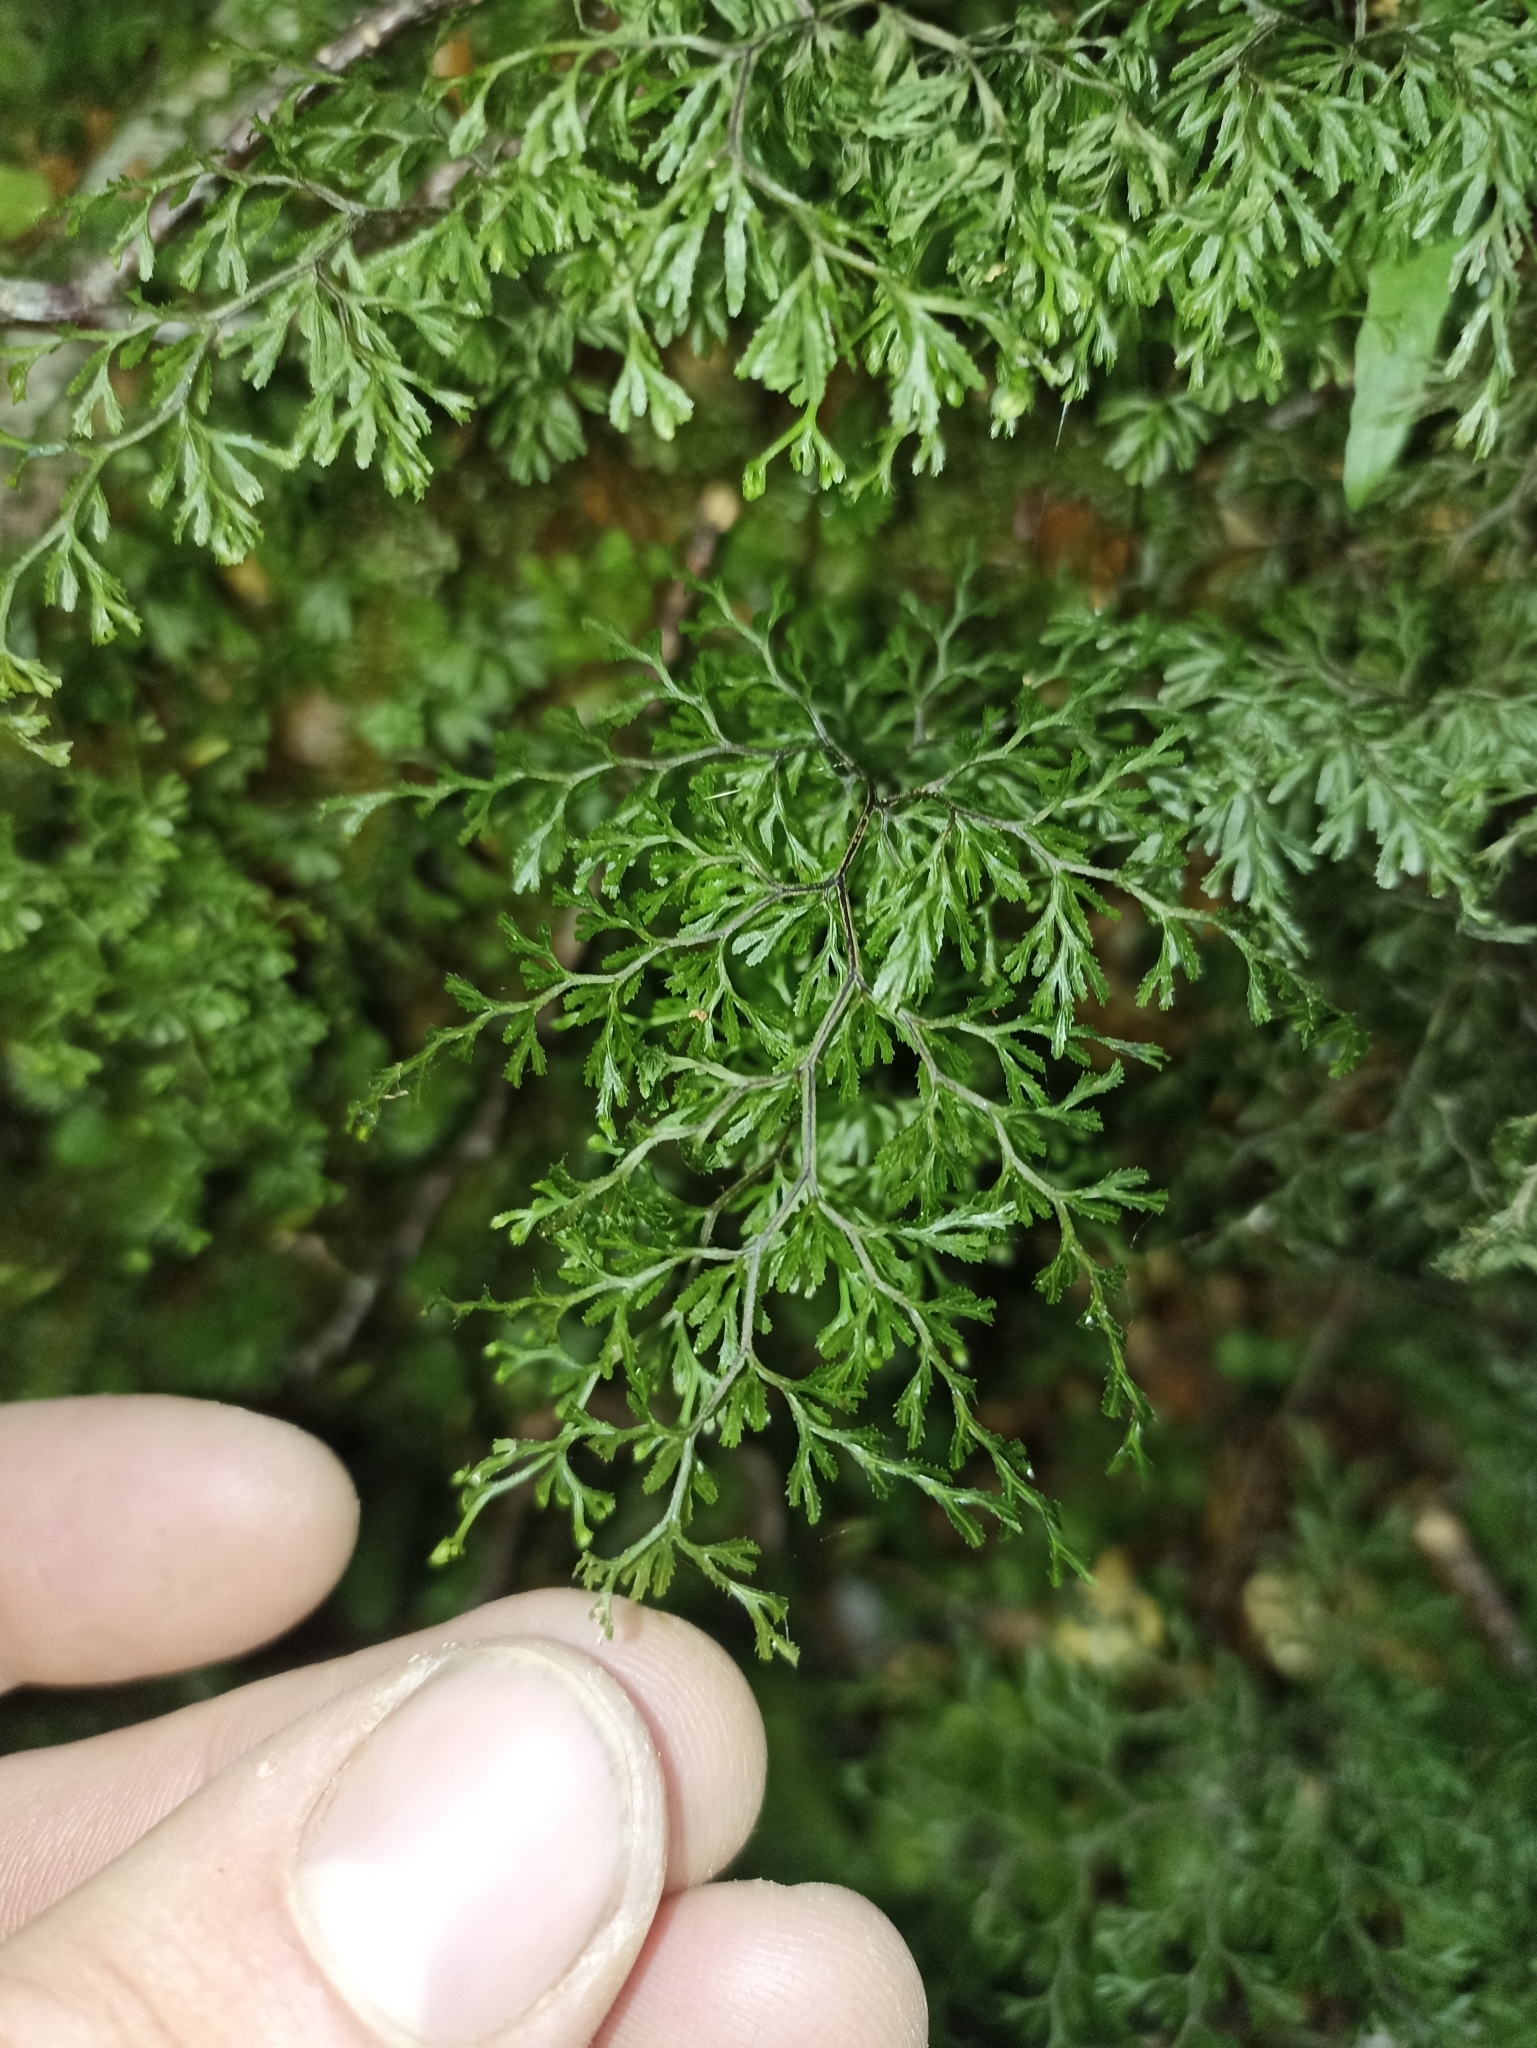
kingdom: Plantae
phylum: Tracheophyta
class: Polypodiopsida
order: Hymenophyllales
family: Hymenophyllaceae
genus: Hymenophyllum
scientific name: Hymenophyllum multifidum
